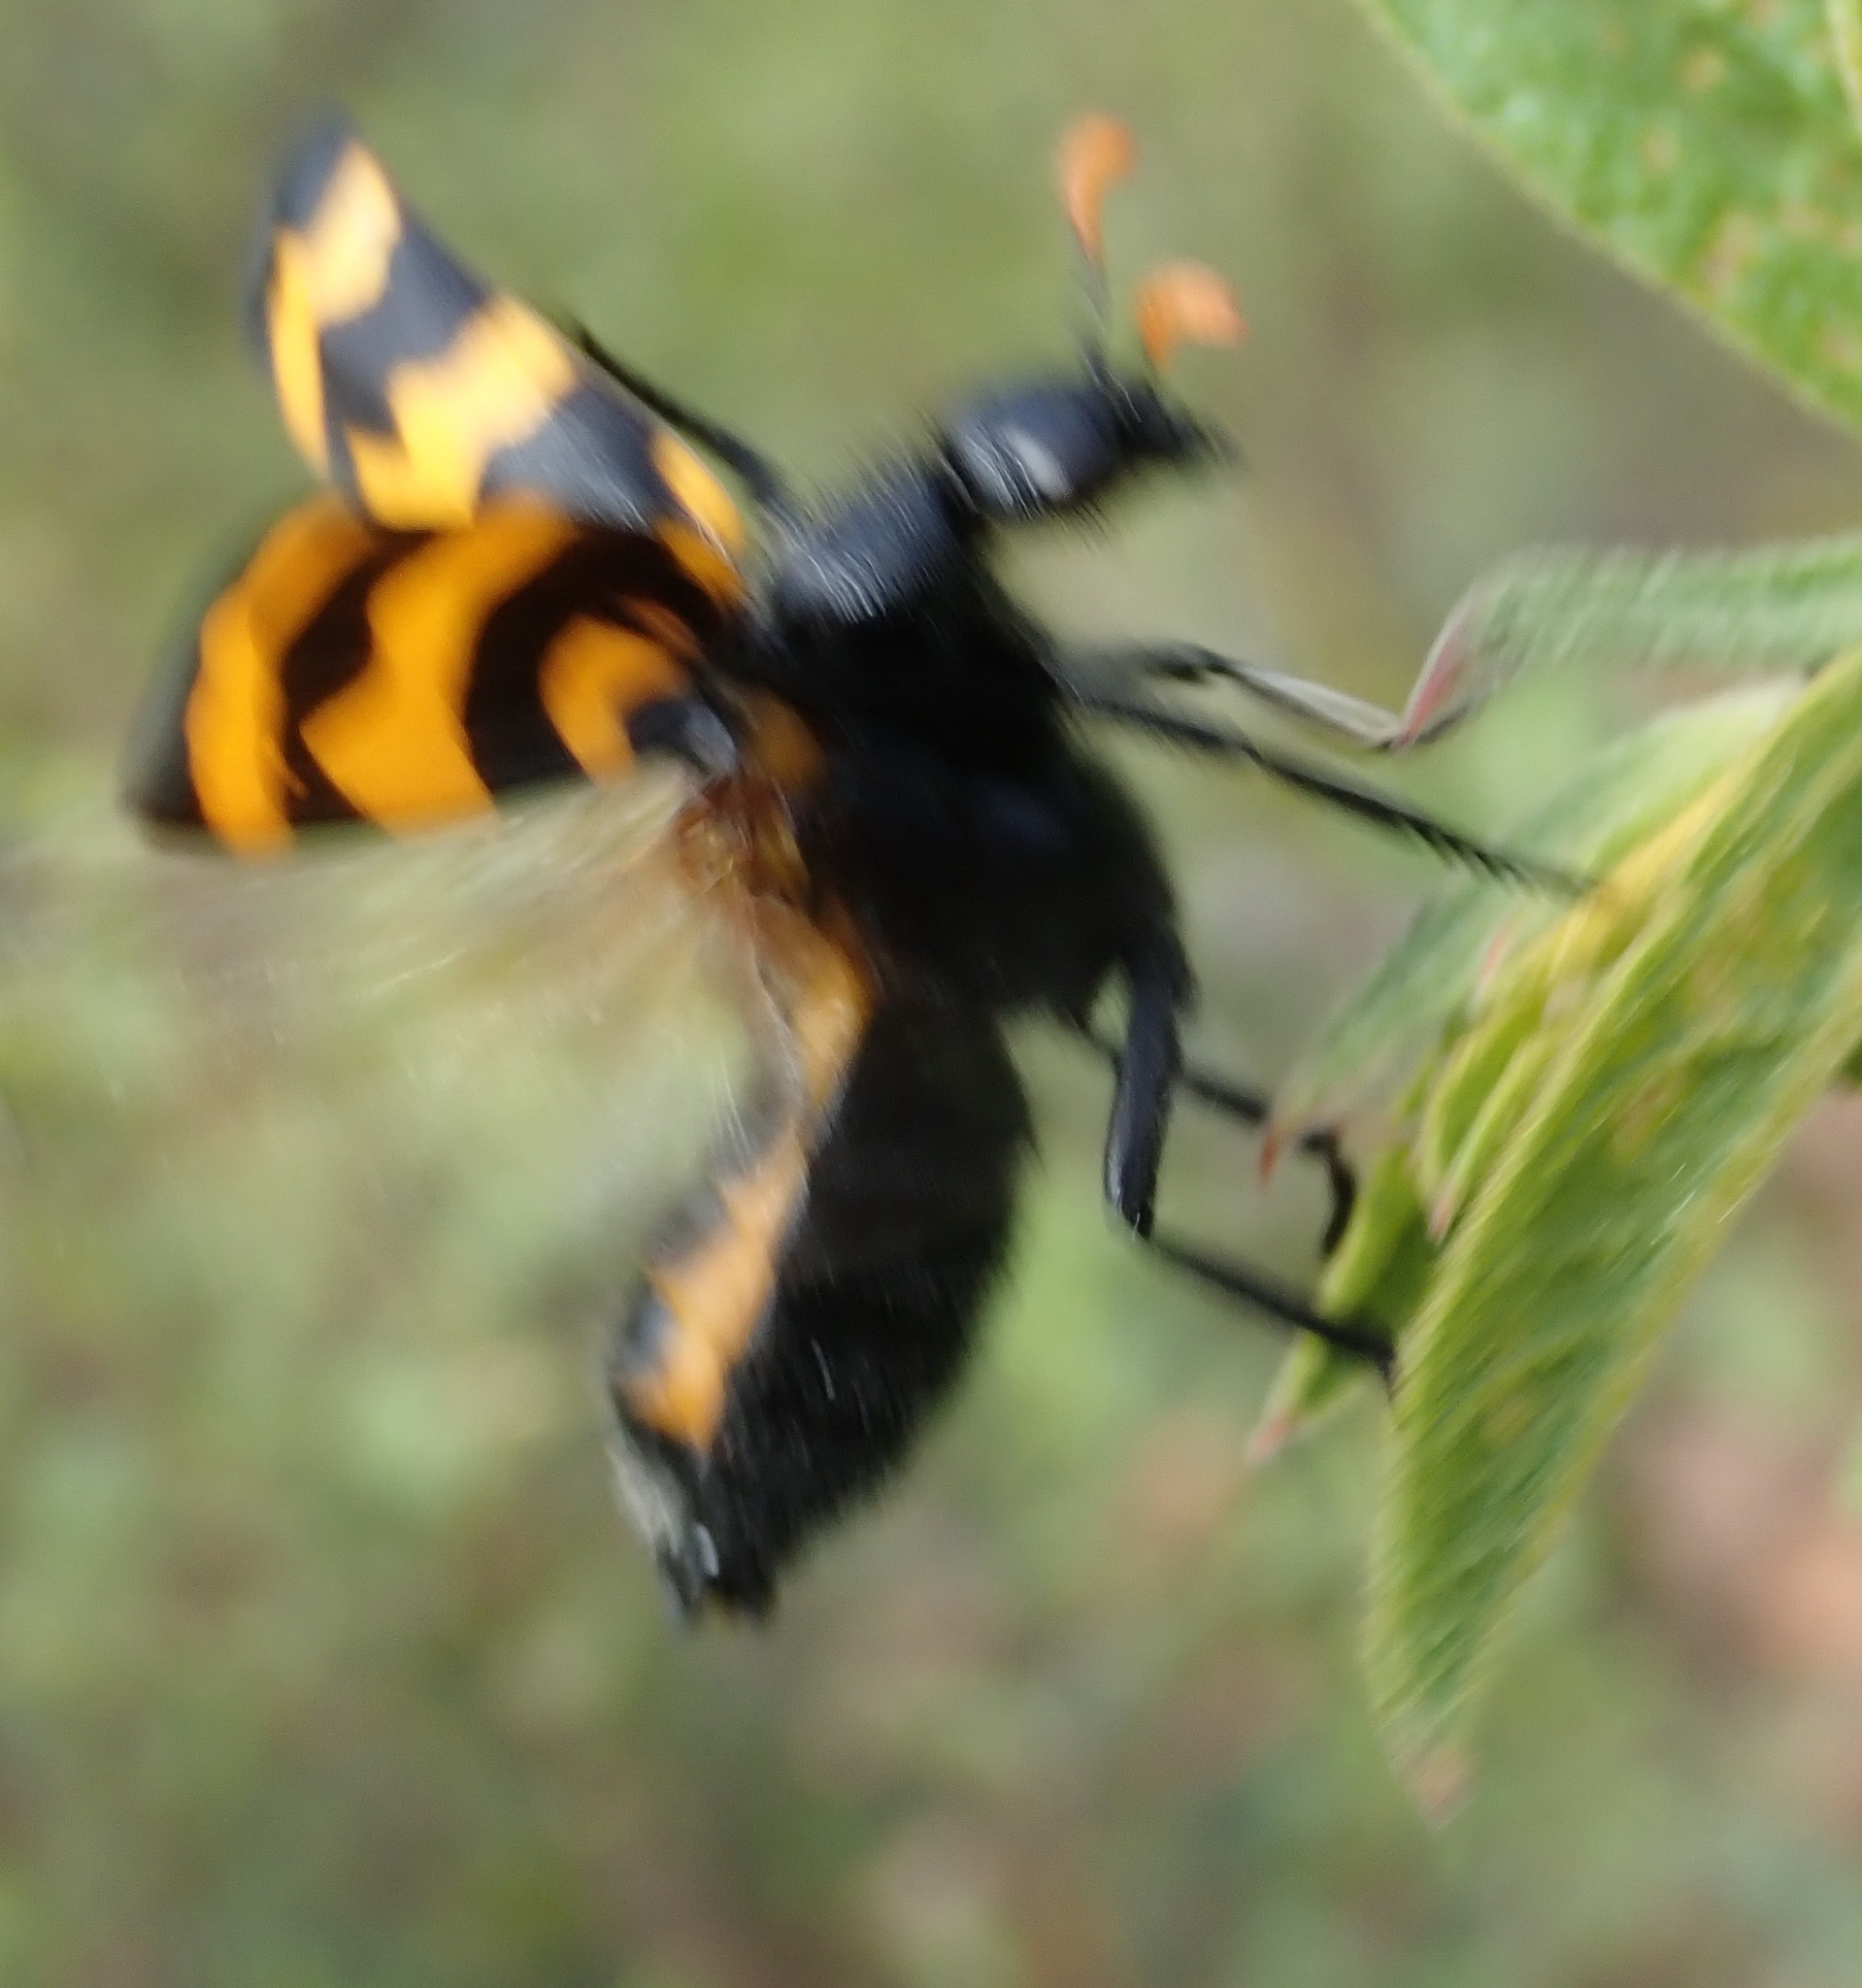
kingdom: Animalia
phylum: Arthropoda
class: Insecta
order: Coleoptera
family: Meloidae
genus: Meloe
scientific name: Meloe lunata
